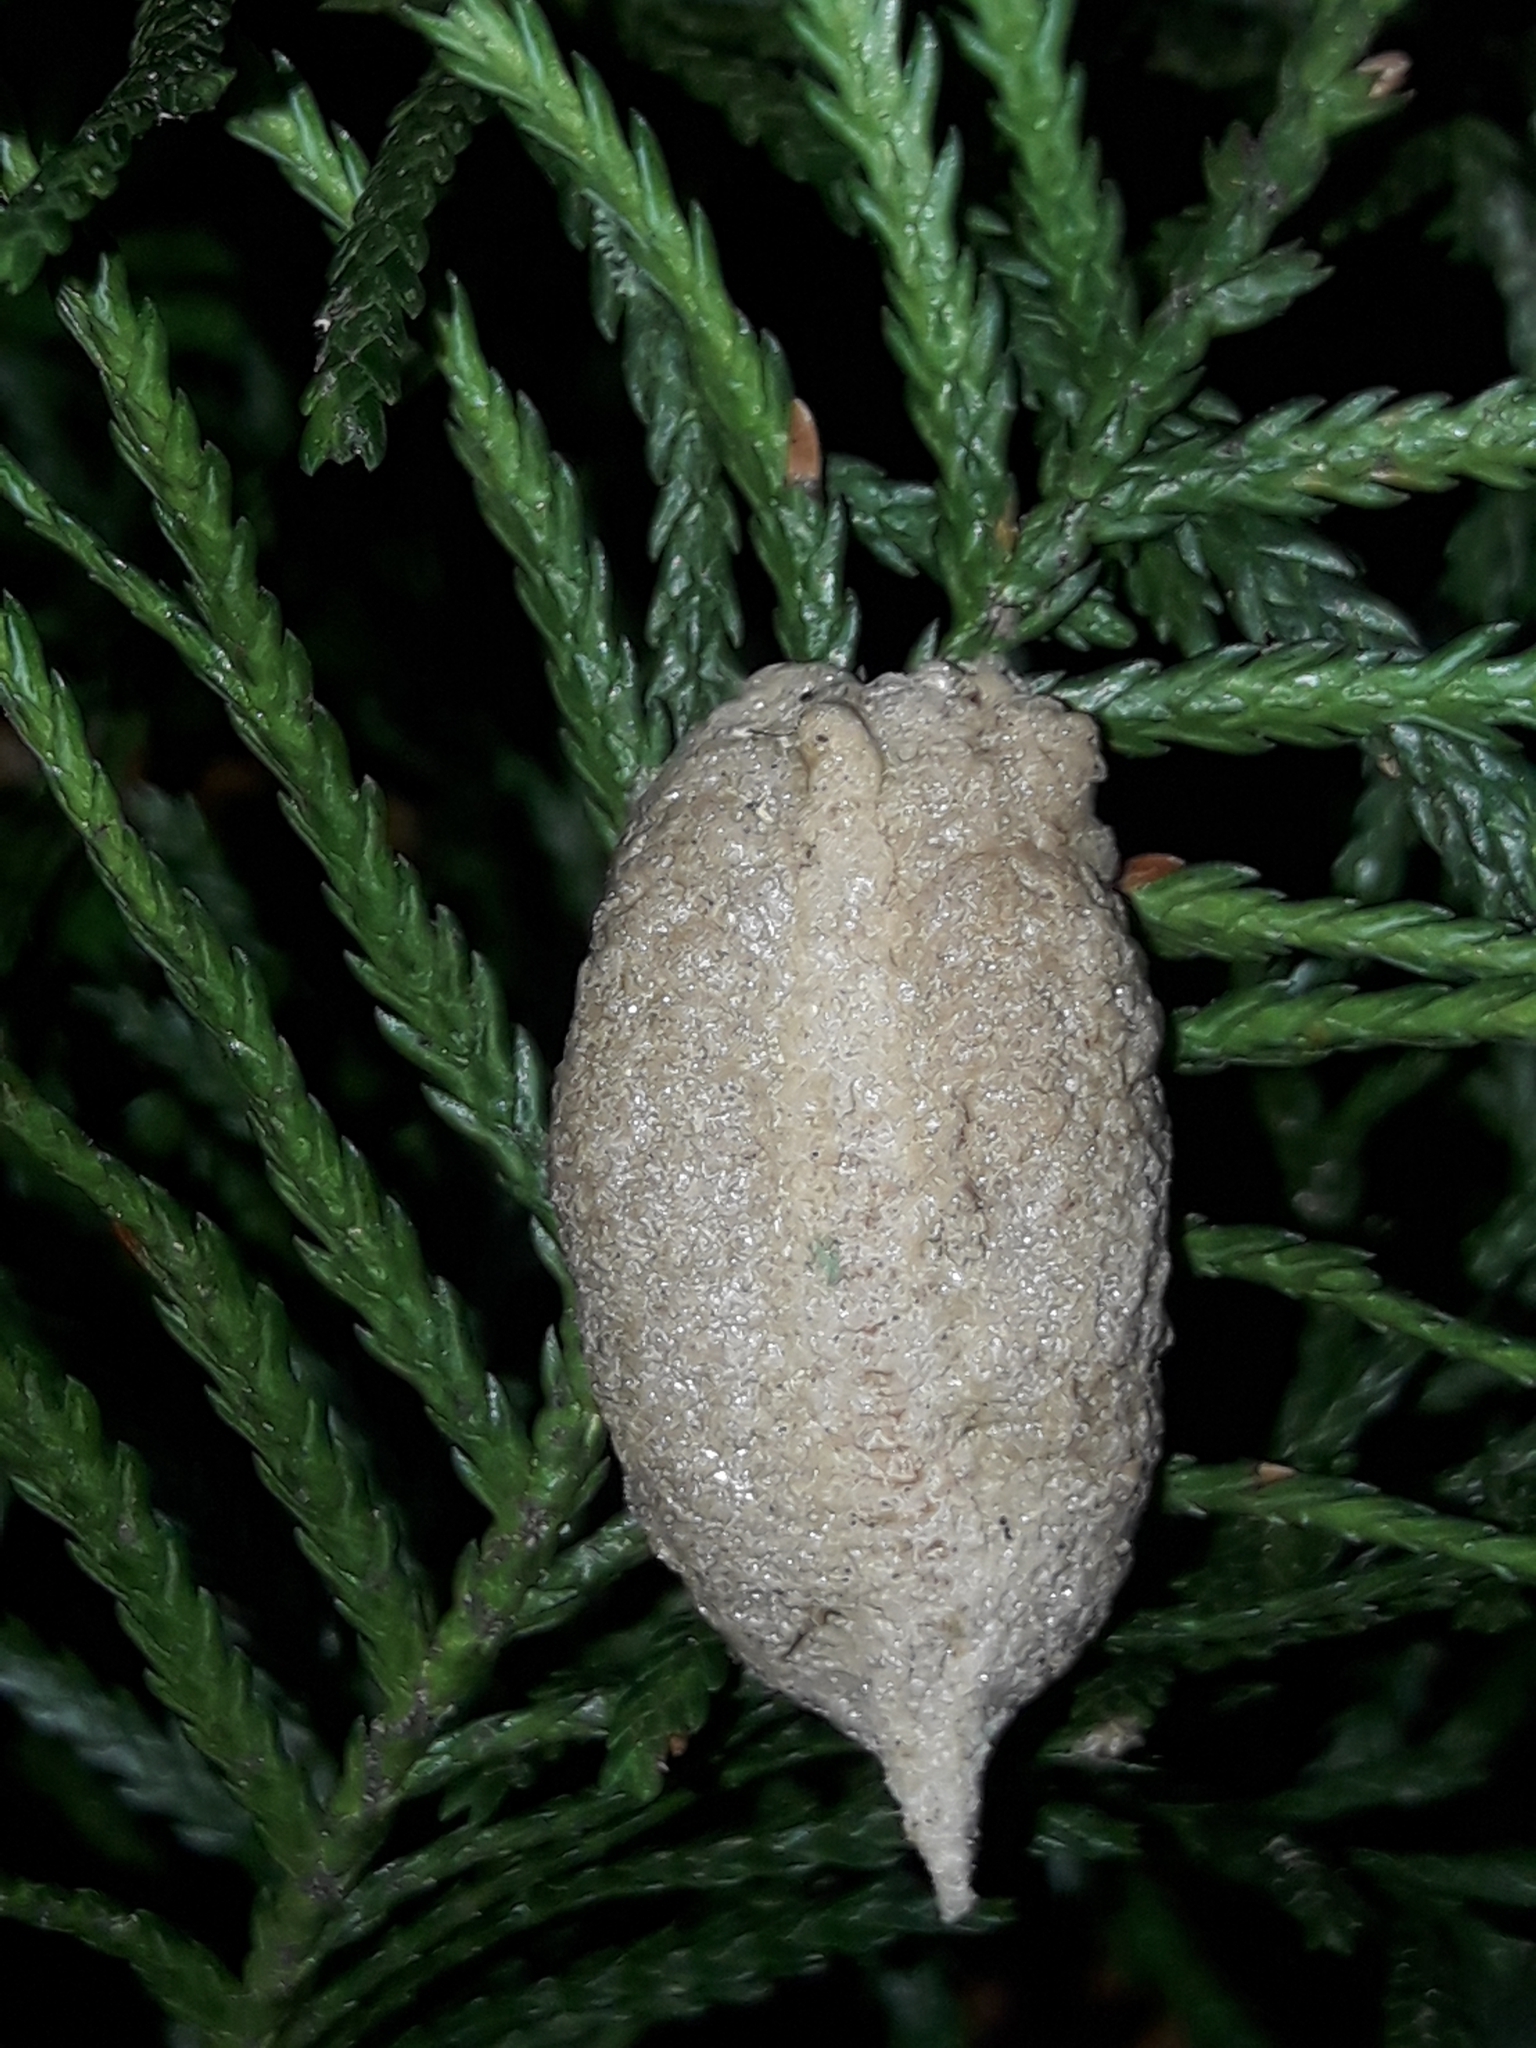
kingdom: Animalia
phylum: Arthropoda
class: Insecta
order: Mantodea
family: Miomantidae
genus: Miomantis
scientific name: Miomantis caffra
